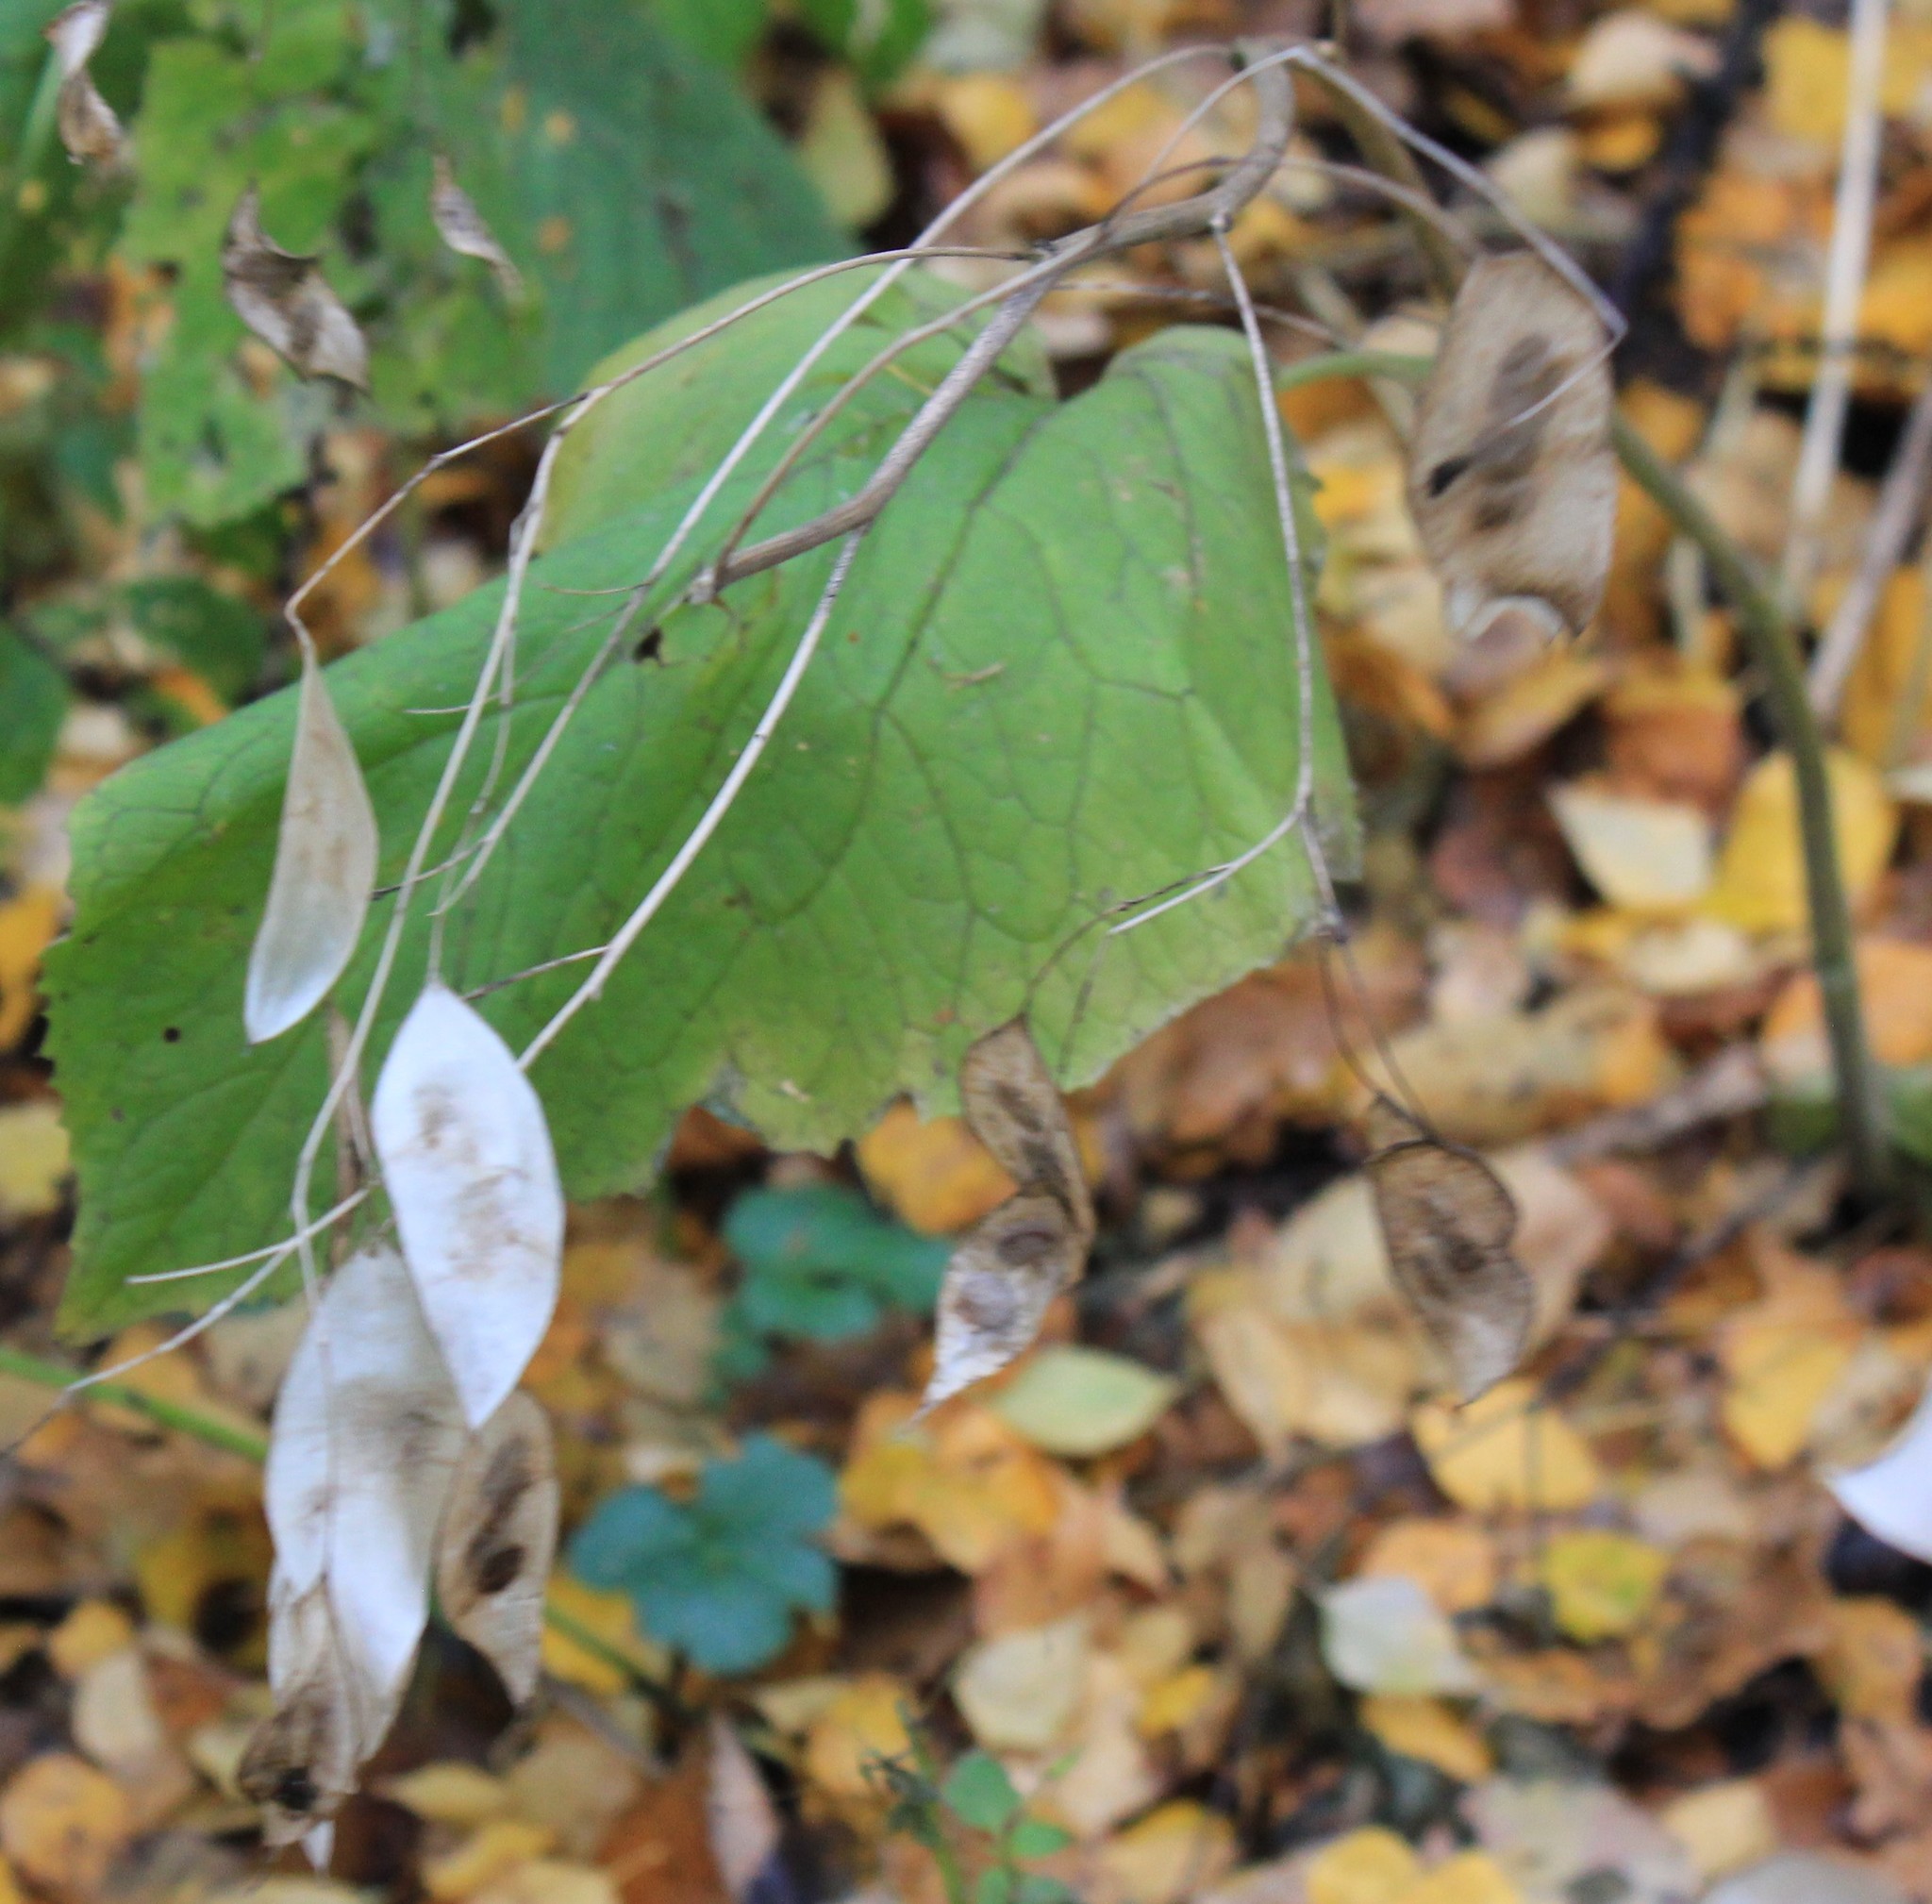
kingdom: Plantae
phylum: Tracheophyta
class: Magnoliopsida
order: Brassicales
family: Brassicaceae
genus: Lunaria
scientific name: Lunaria rediviva
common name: Perennial honesty
